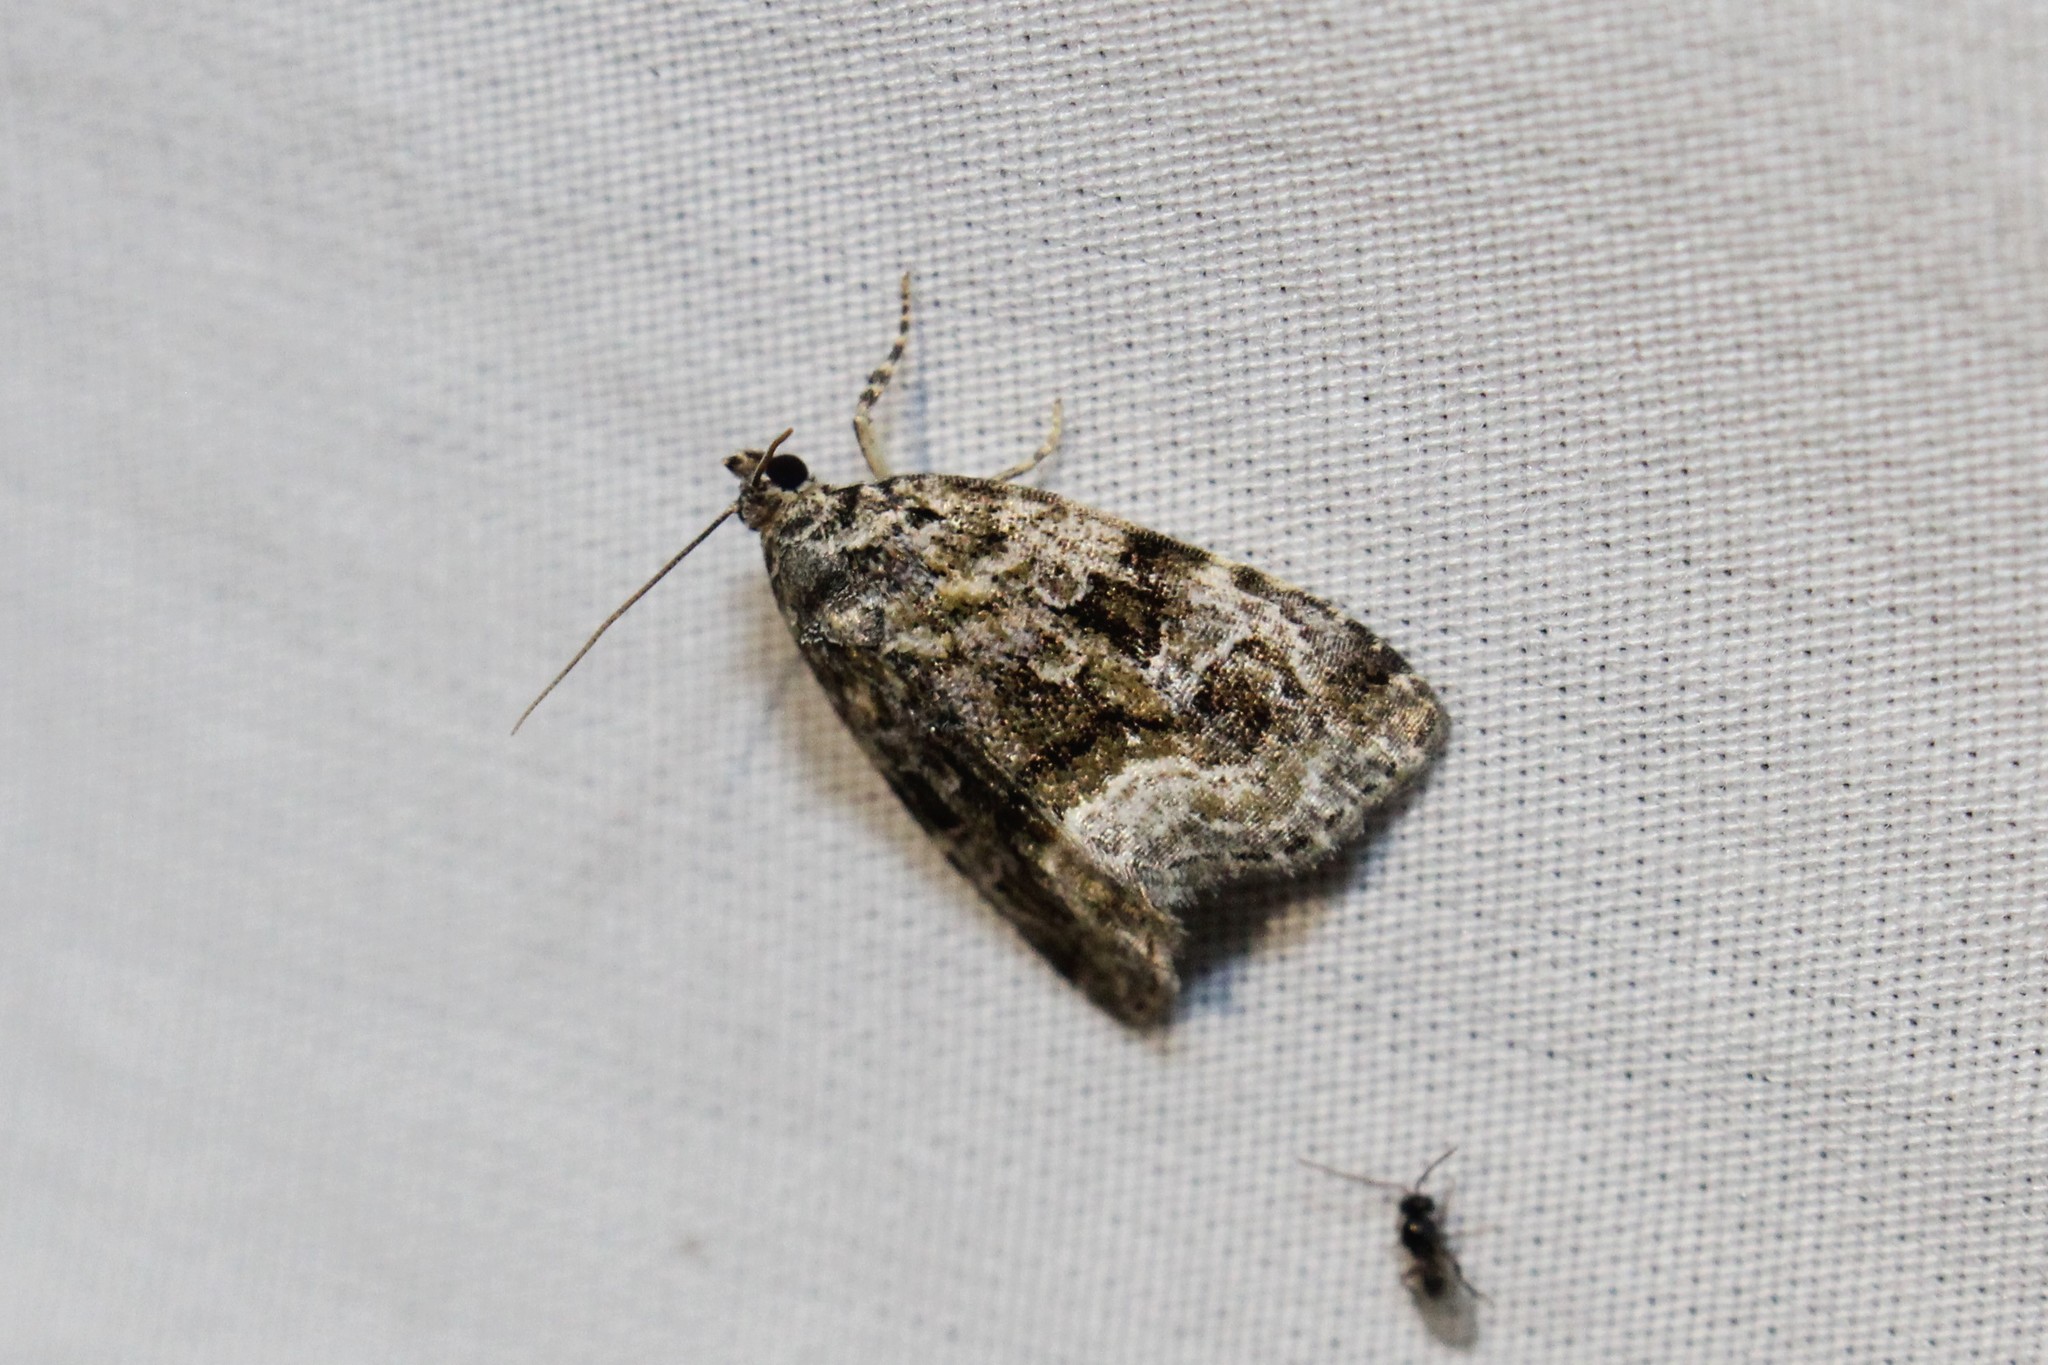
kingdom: Animalia
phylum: Arthropoda
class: Insecta
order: Lepidoptera
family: Noctuidae
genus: Protodeltote
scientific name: Protodeltote muscosula
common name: Large mossy glyph
